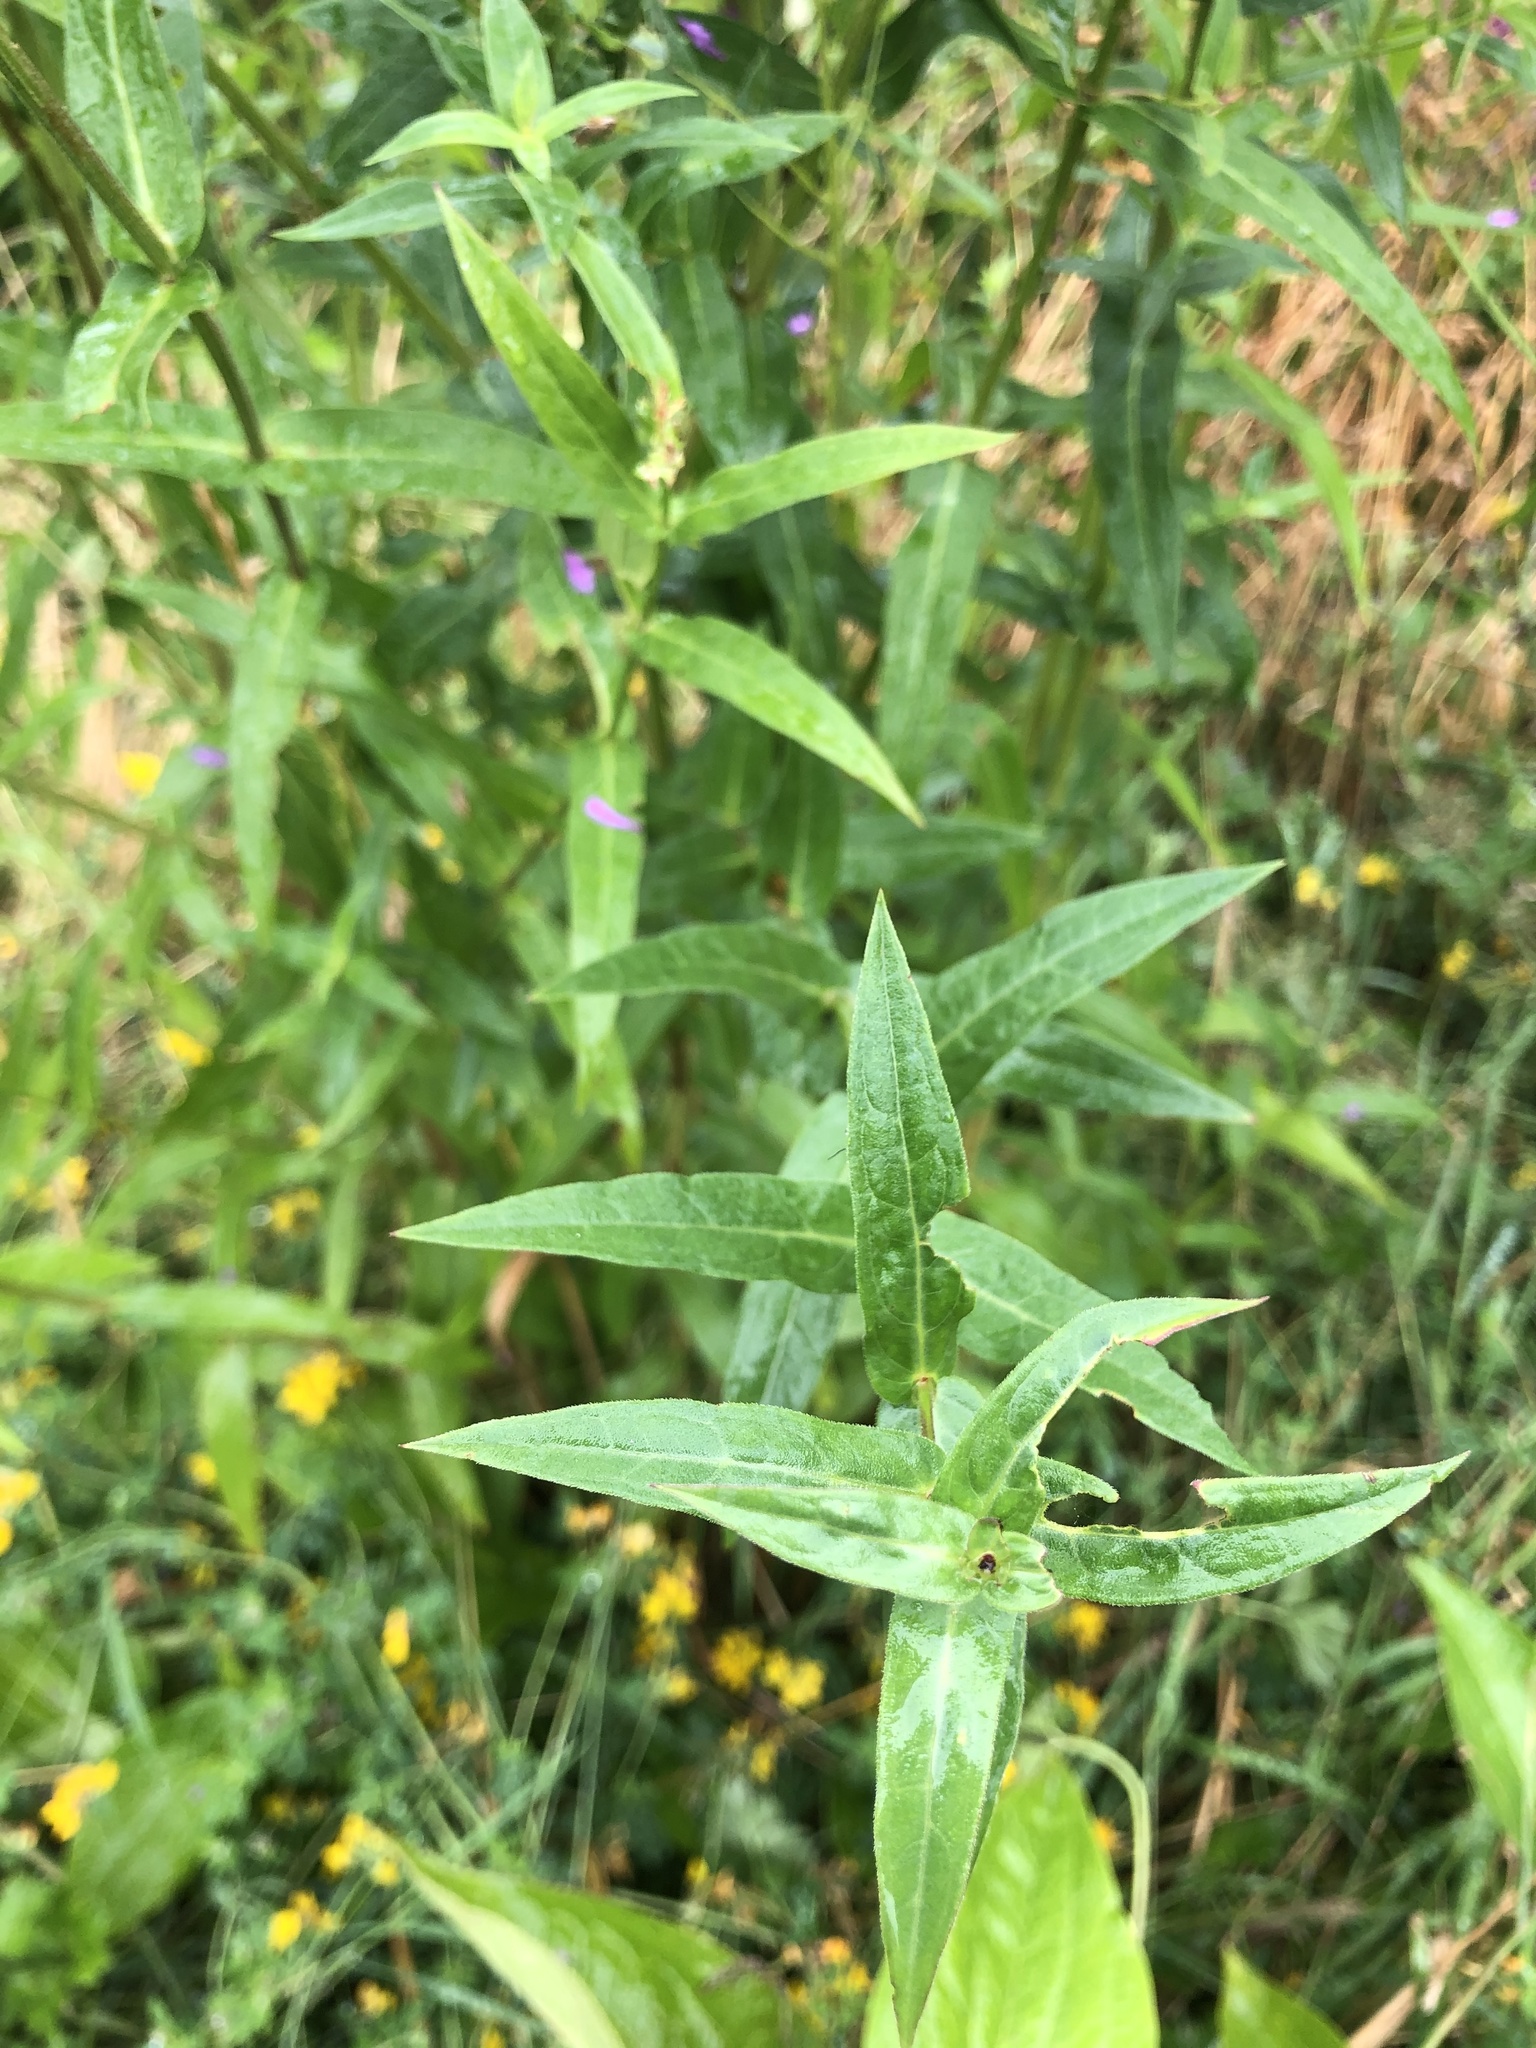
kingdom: Plantae
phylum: Tracheophyta
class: Magnoliopsida
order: Myrtales
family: Lythraceae
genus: Lythrum
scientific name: Lythrum salicaria
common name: Purple loosestrife
